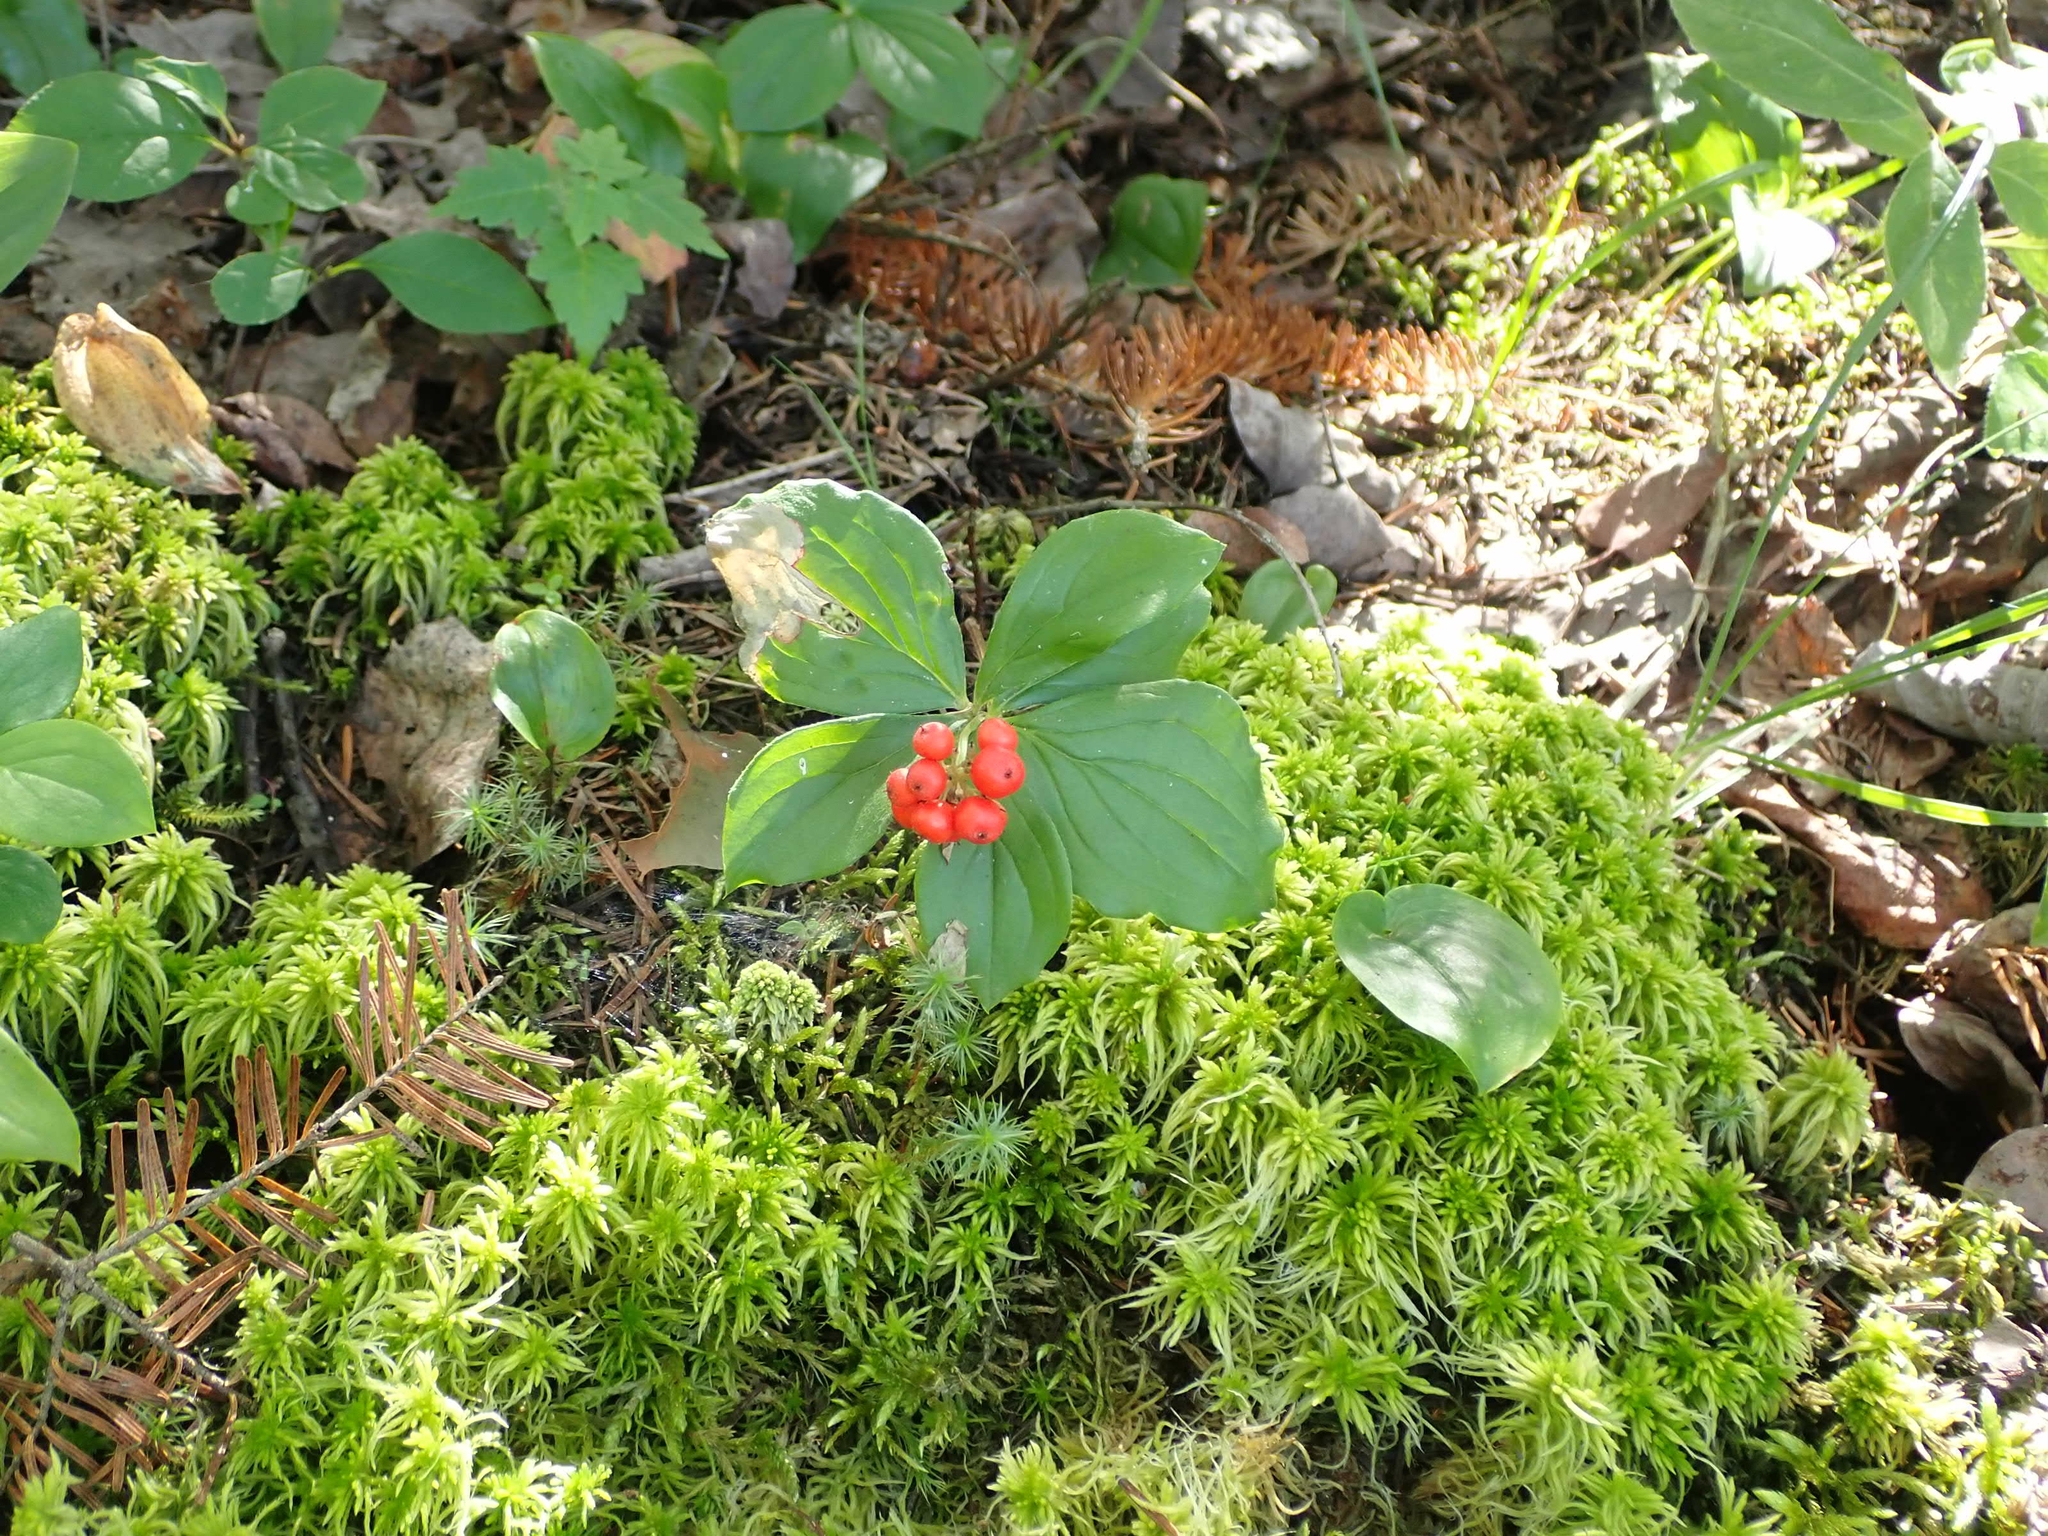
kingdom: Plantae
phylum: Tracheophyta
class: Magnoliopsida
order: Cornales
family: Cornaceae
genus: Cornus
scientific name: Cornus canadensis
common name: Creeping dogwood
